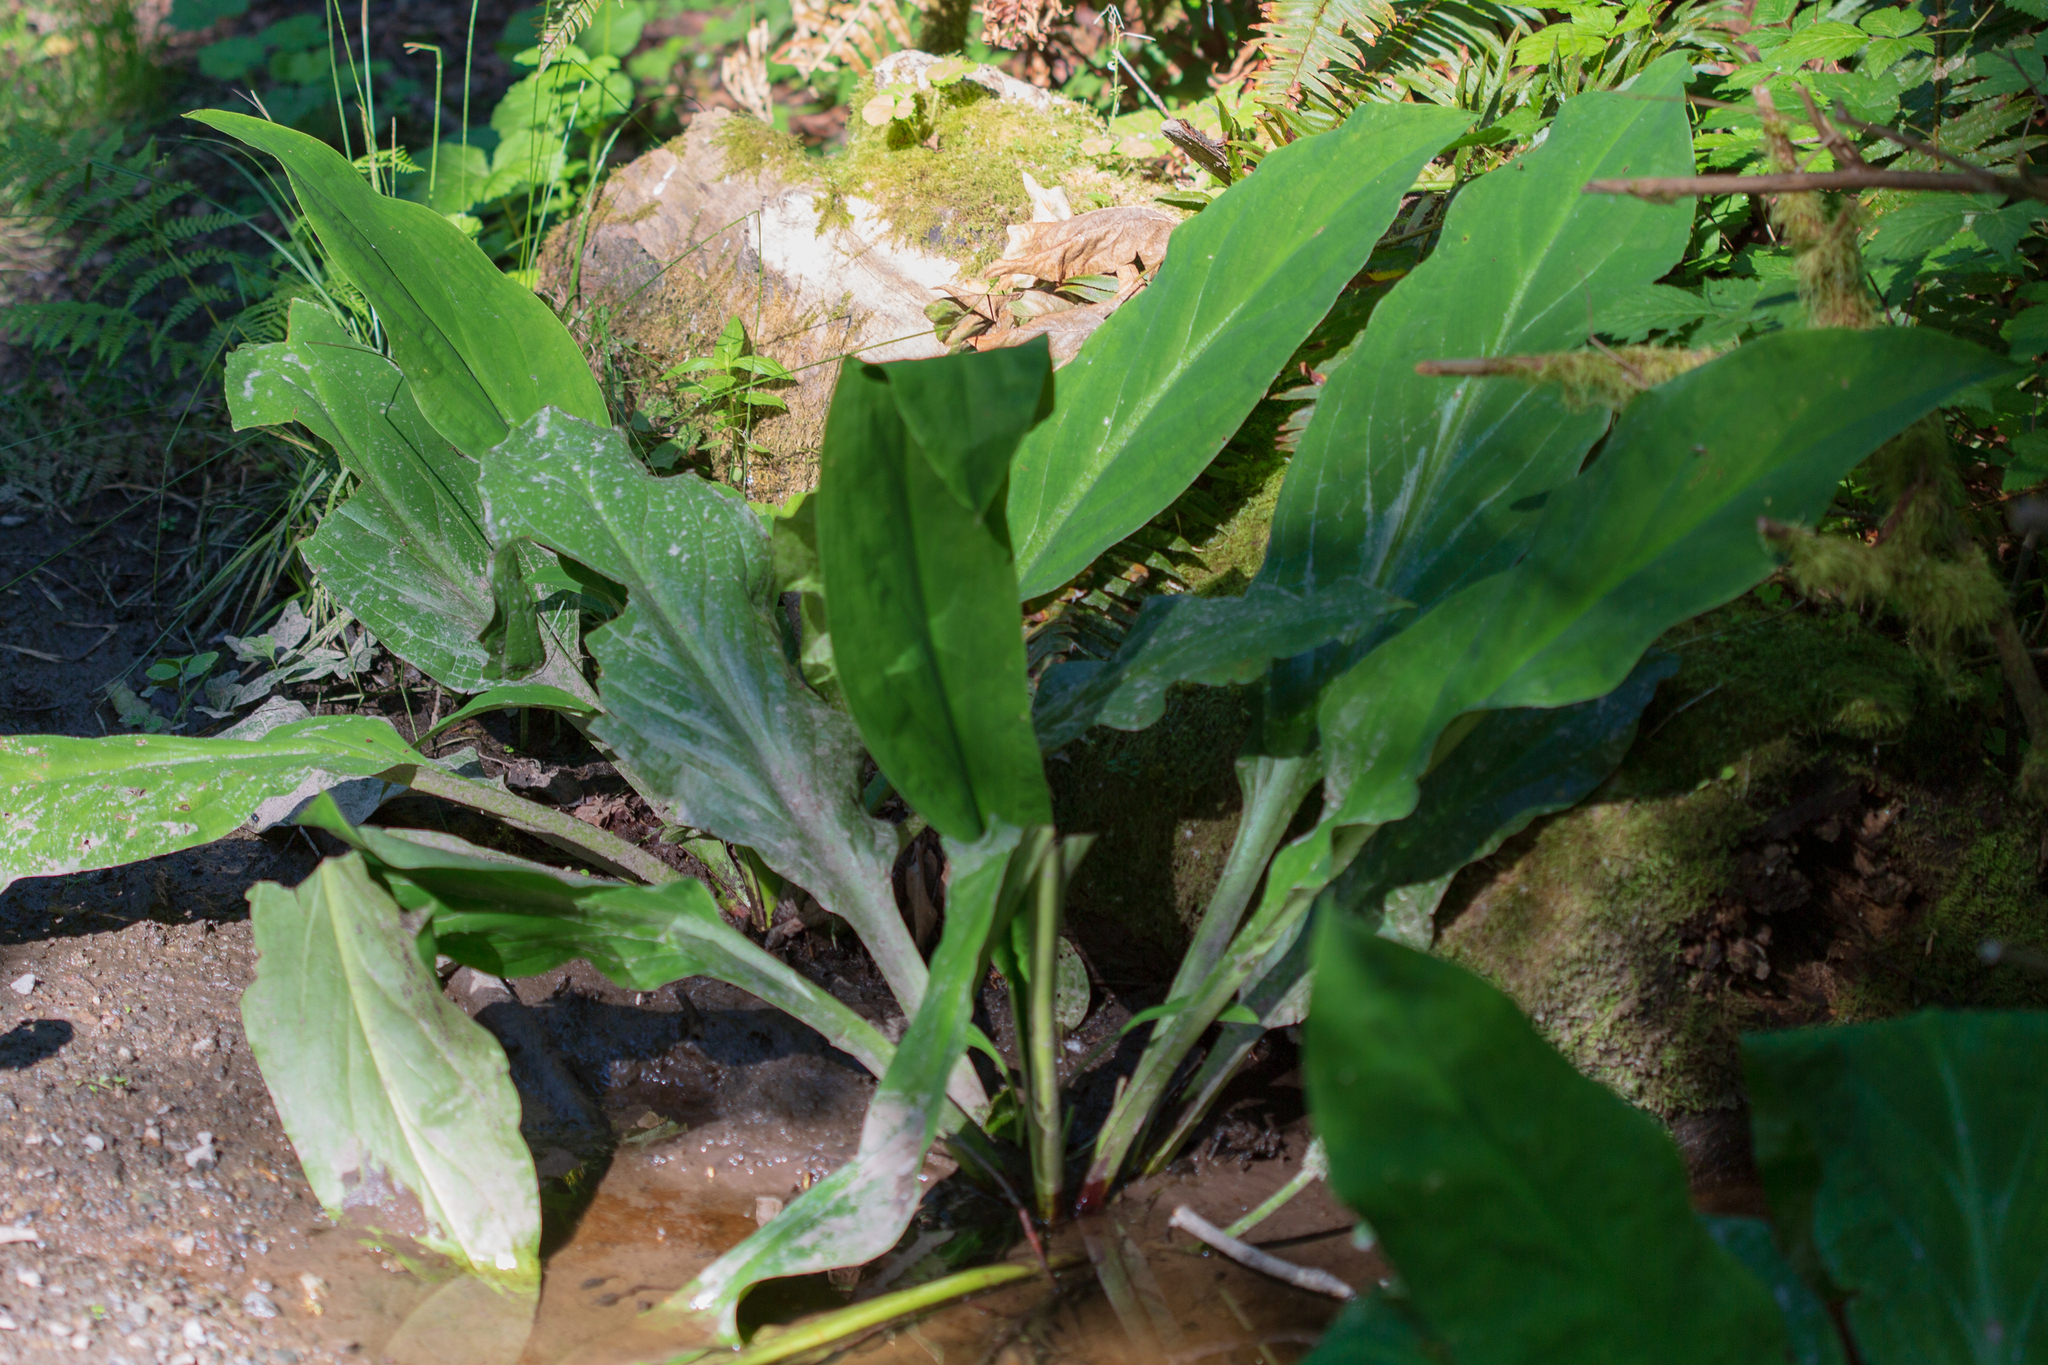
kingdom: Plantae
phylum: Tracheophyta
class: Liliopsida
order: Alismatales
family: Araceae
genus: Lysichiton
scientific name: Lysichiton americanus
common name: American skunk cabbage
